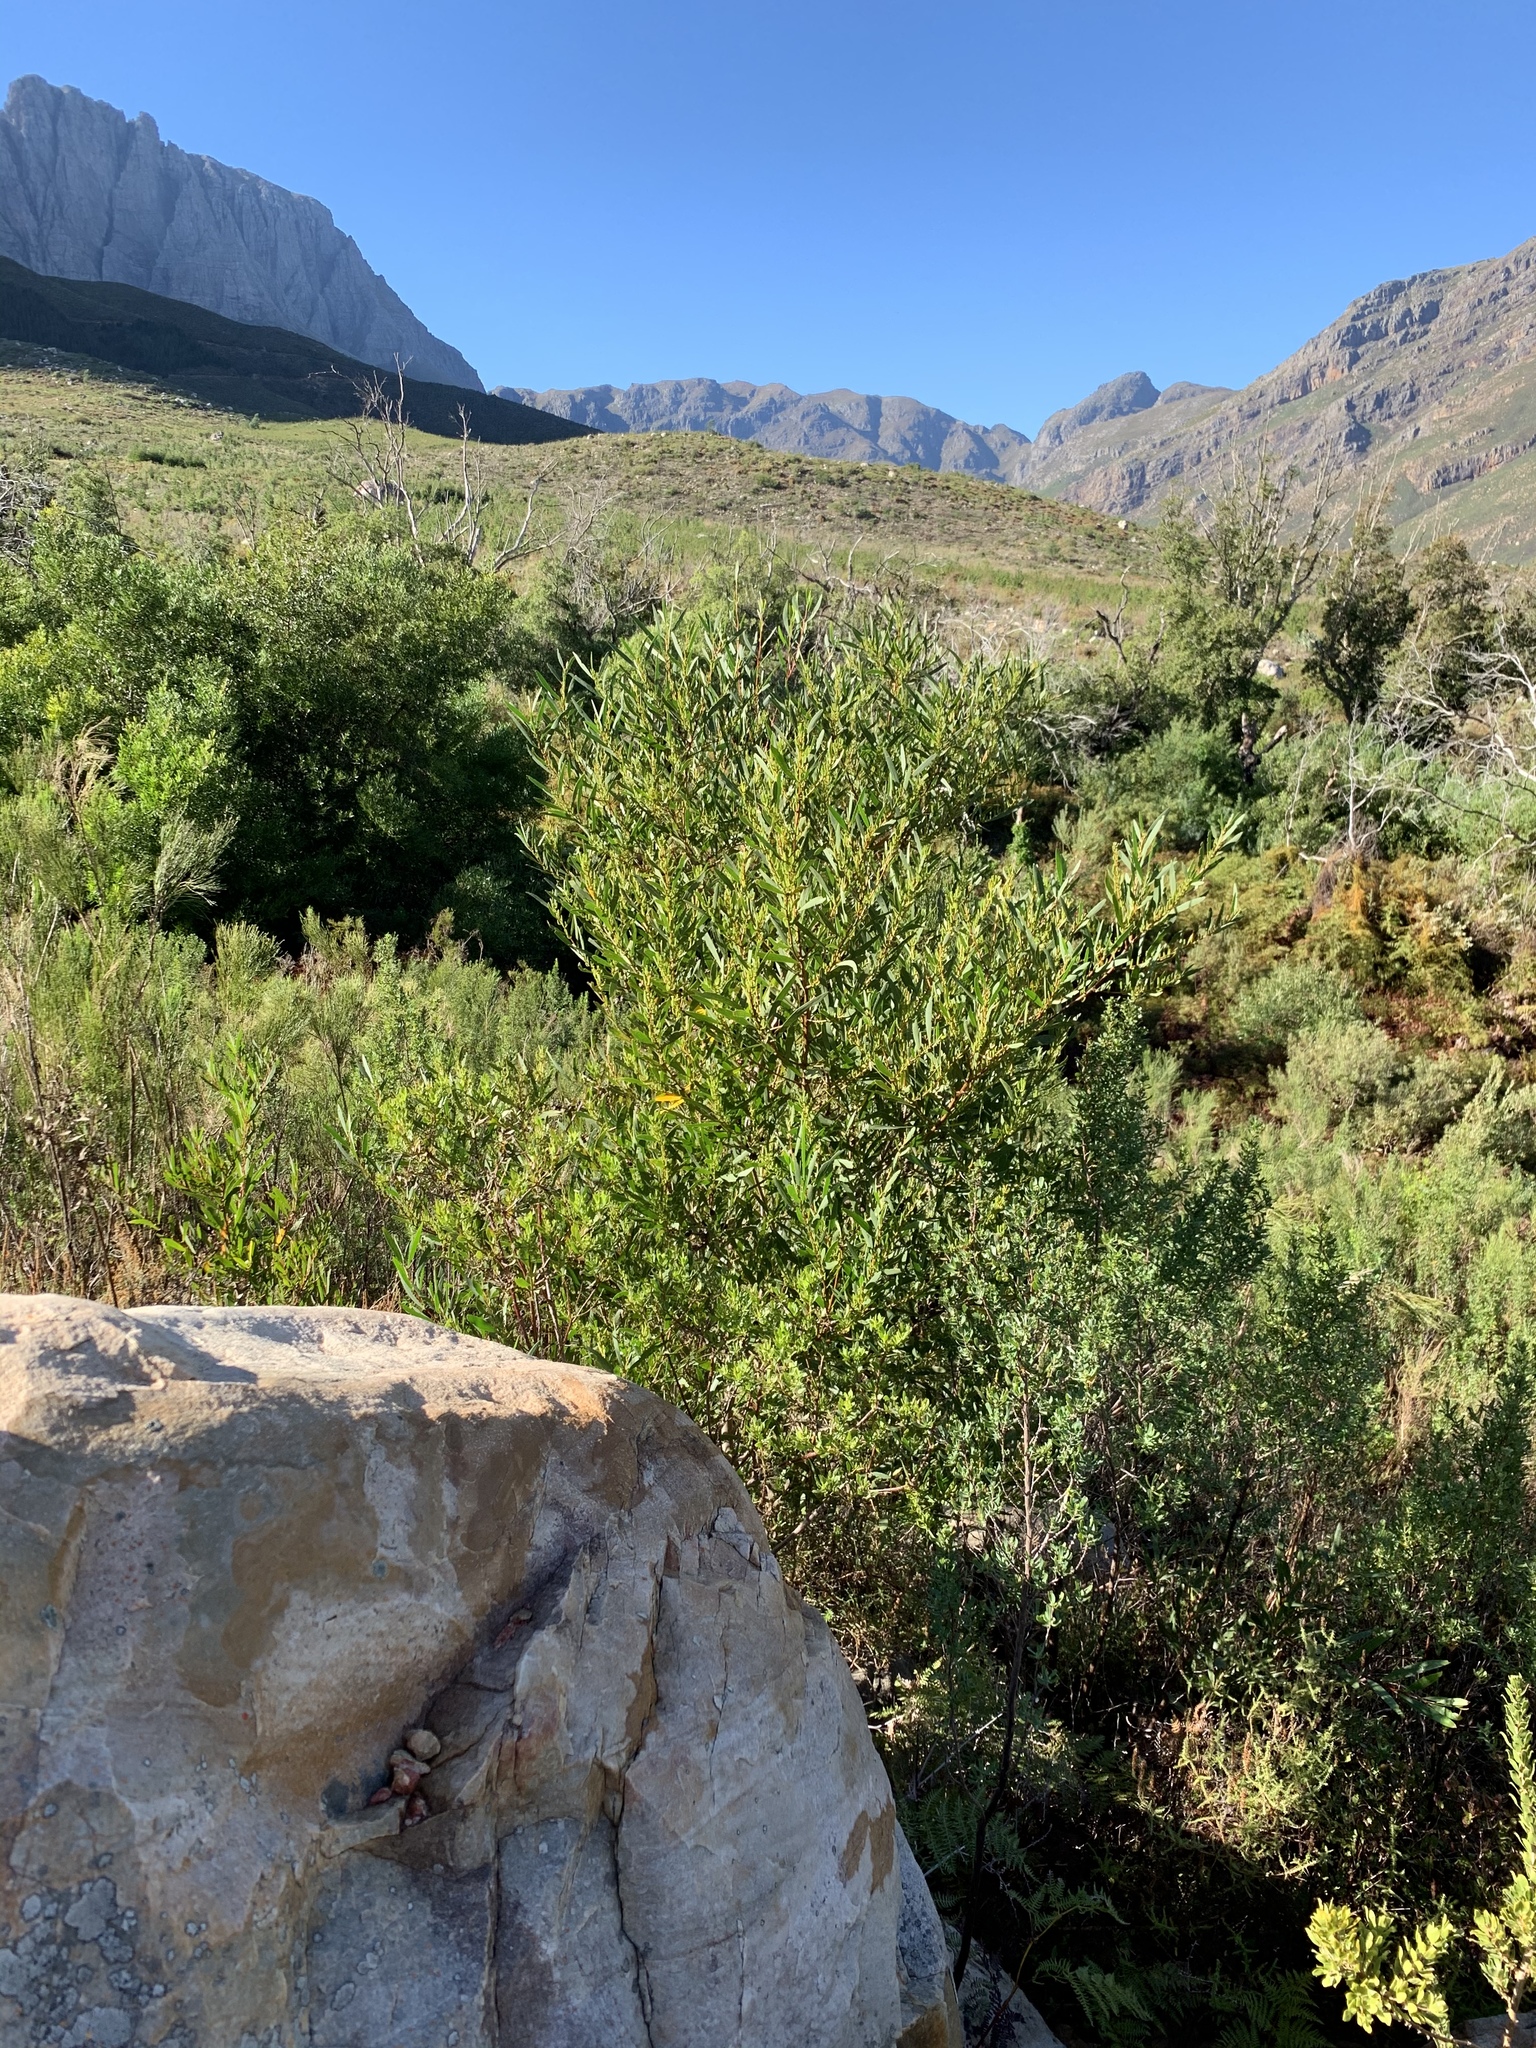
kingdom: Plantae
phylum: Tracheophyta
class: Magnoliopsida
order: Fabales
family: Fabaceae
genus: Acacia
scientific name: Acacia longifolia
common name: Sydney golden wattle
